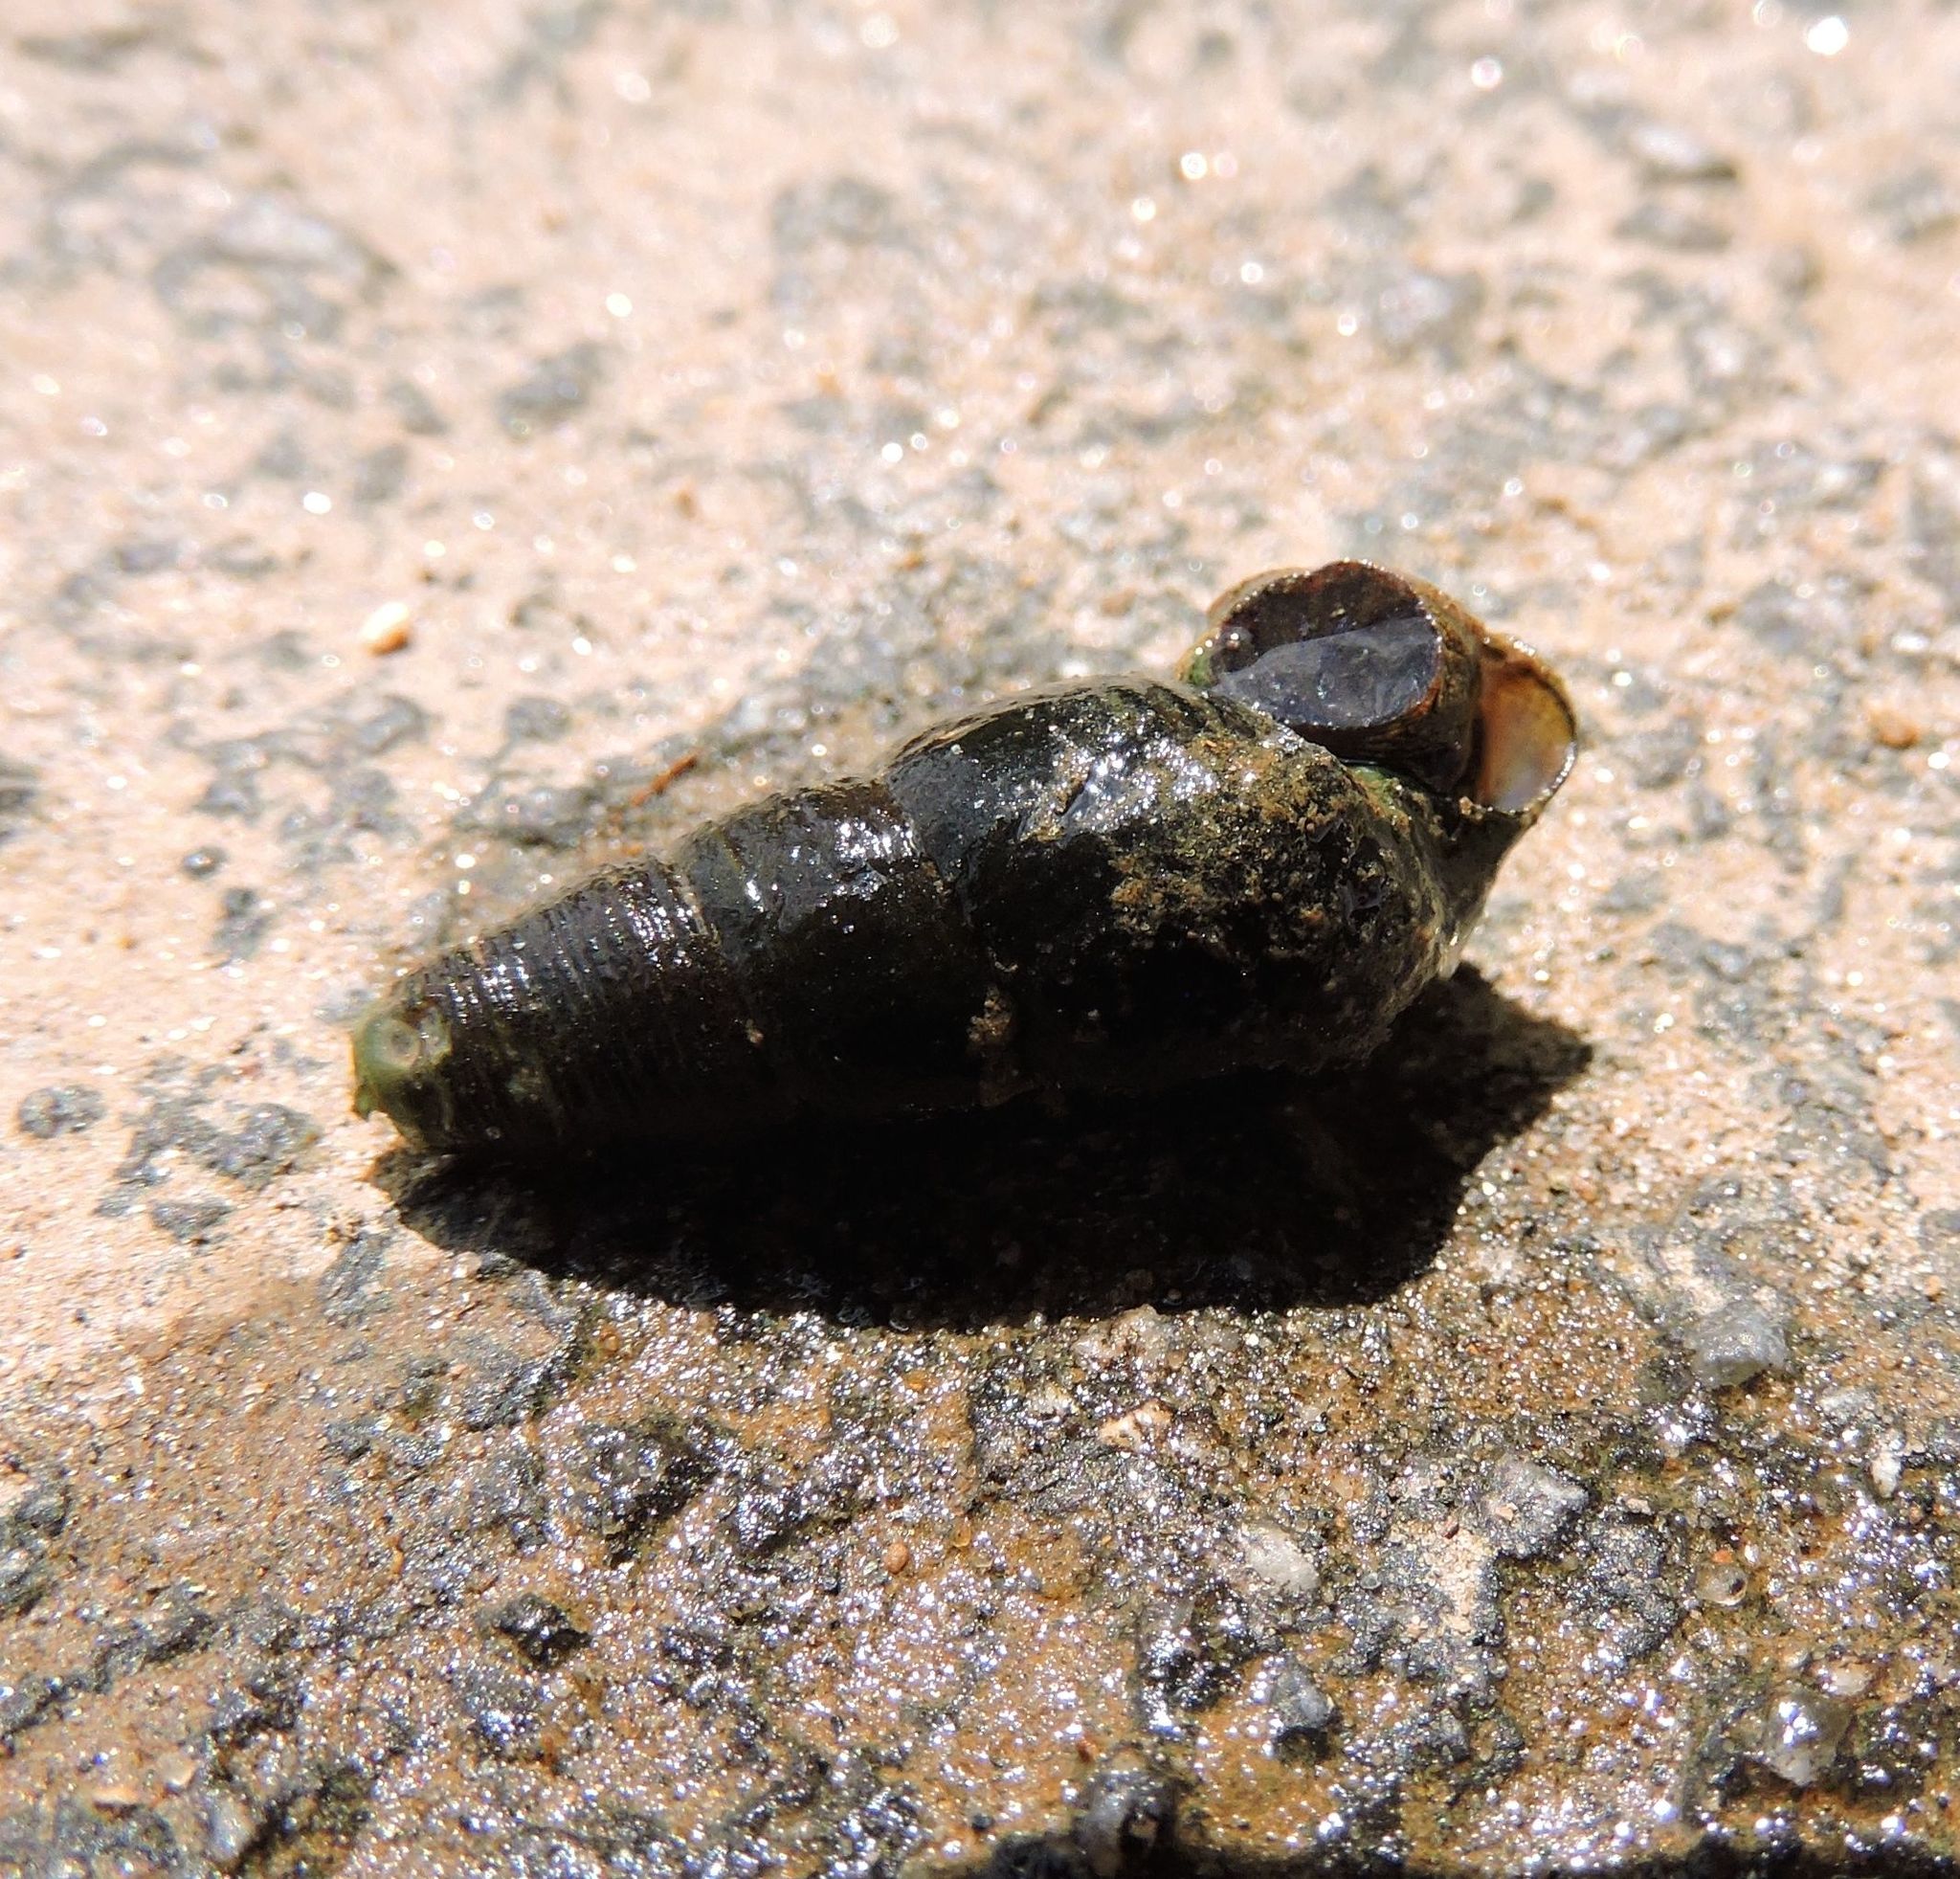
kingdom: Animalia
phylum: Mollusca
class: Gastropoda
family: Pleuroceridae
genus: Elimia
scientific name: Elimia virginica
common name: Piedmont elimia
